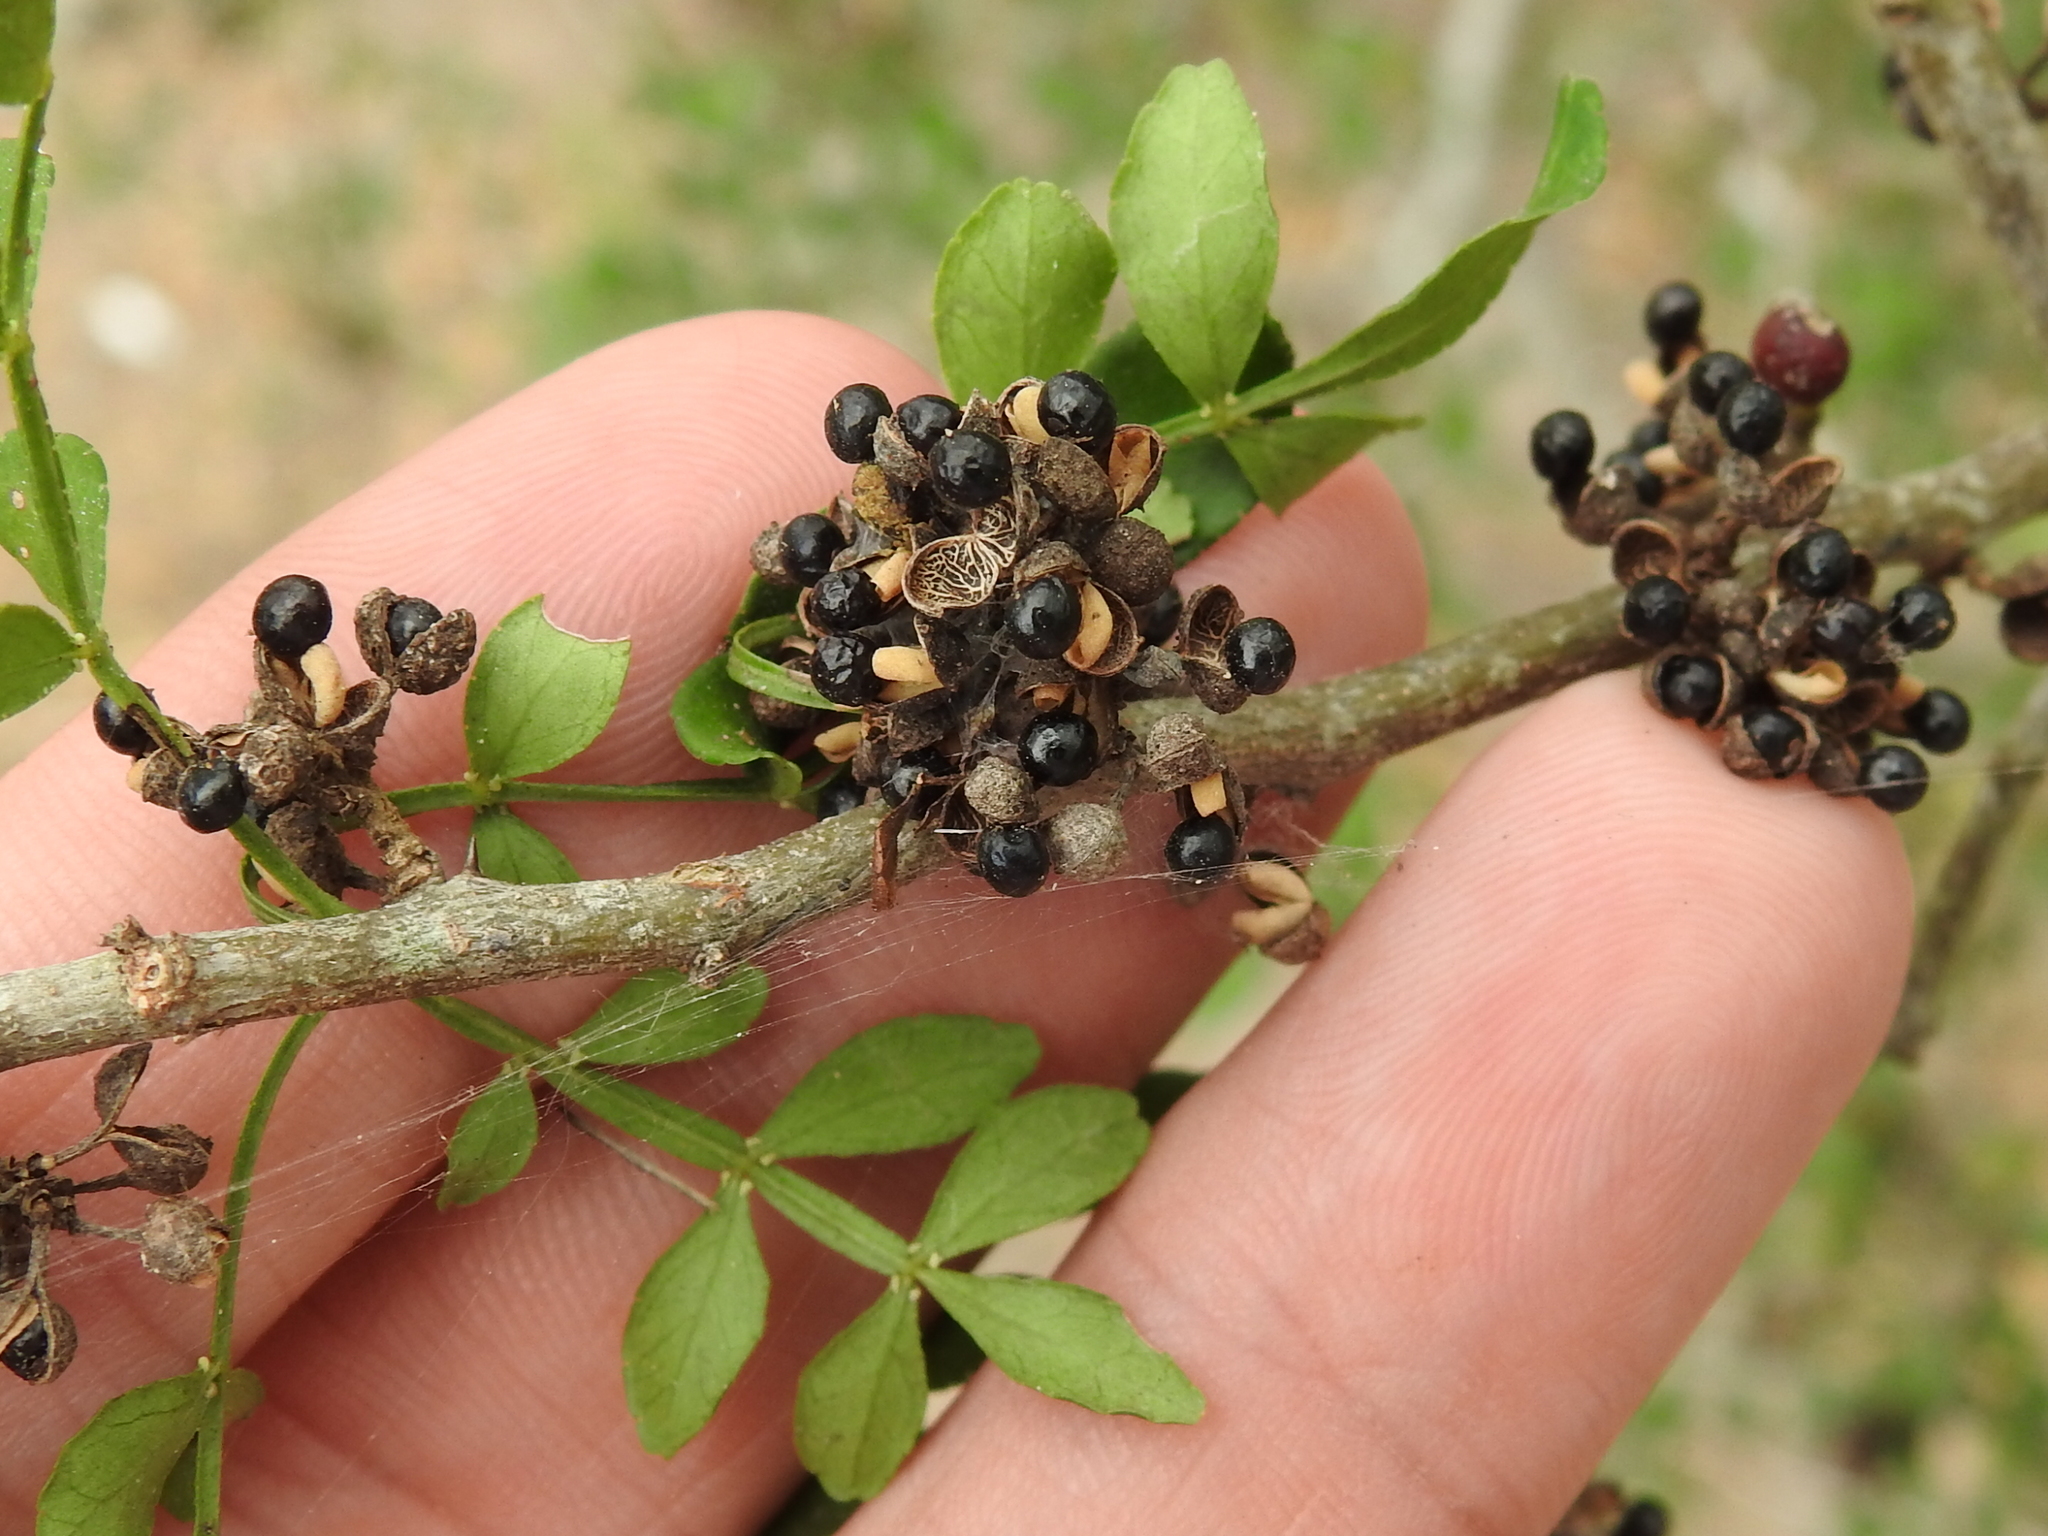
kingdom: Plantae
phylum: Tracheophyta
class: Magnoliopsida
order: Sapindales
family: Rutaceae
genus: Zanthoxylum
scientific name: Zanthoxylum fagara
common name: Lime prickly-ash
